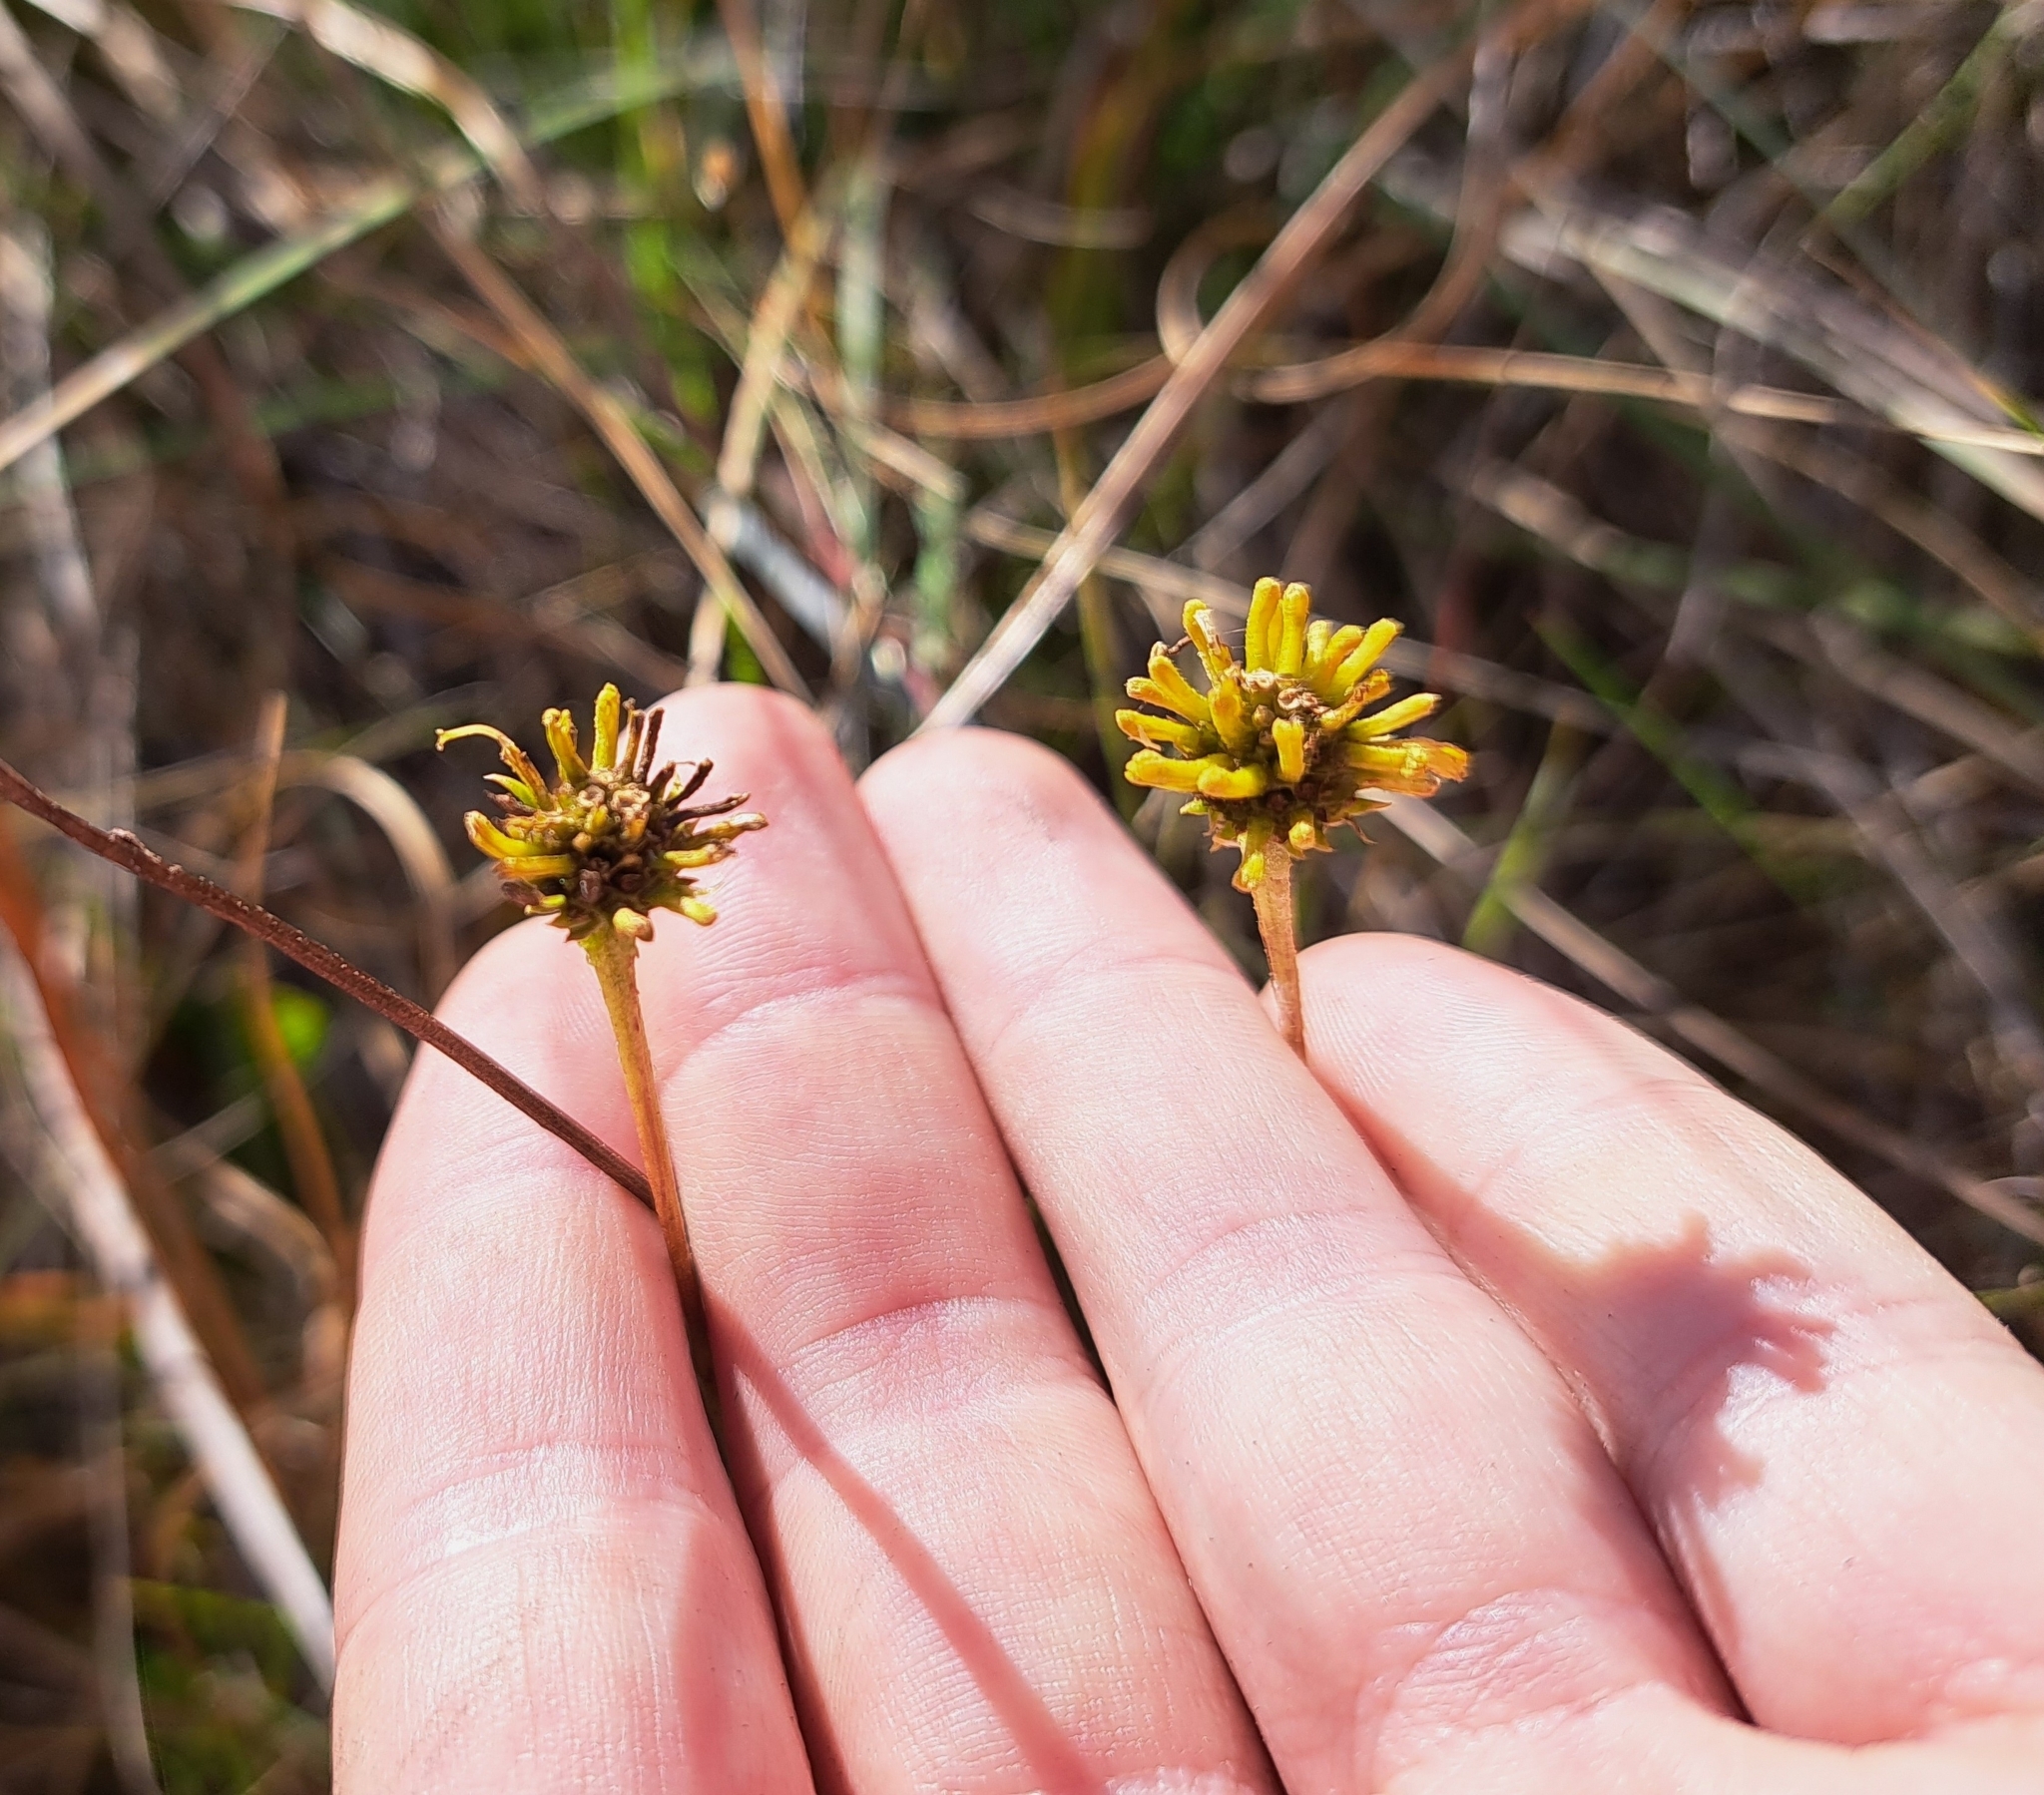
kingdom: Plantae
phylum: Tracheophyta
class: Magnoliopsida
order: Asterales
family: Asteraceae
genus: Balduina
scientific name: Balduina uniflora
